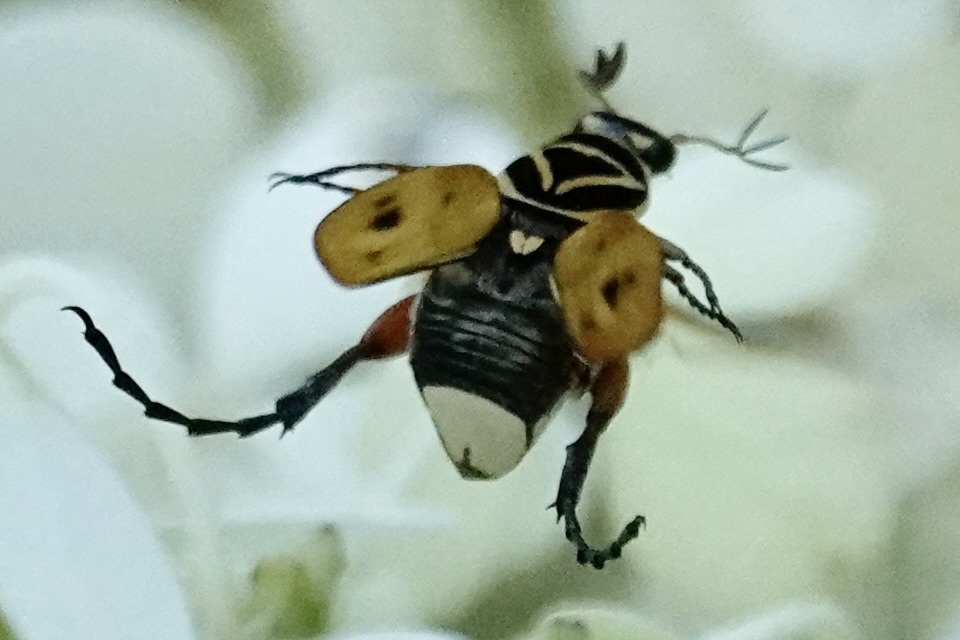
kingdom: Animalia
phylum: Arthropoda
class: Insecta
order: Coleoptera
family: Scarabaeidae
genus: Trigonopeltastes
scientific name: Trigonopeltastes delta
